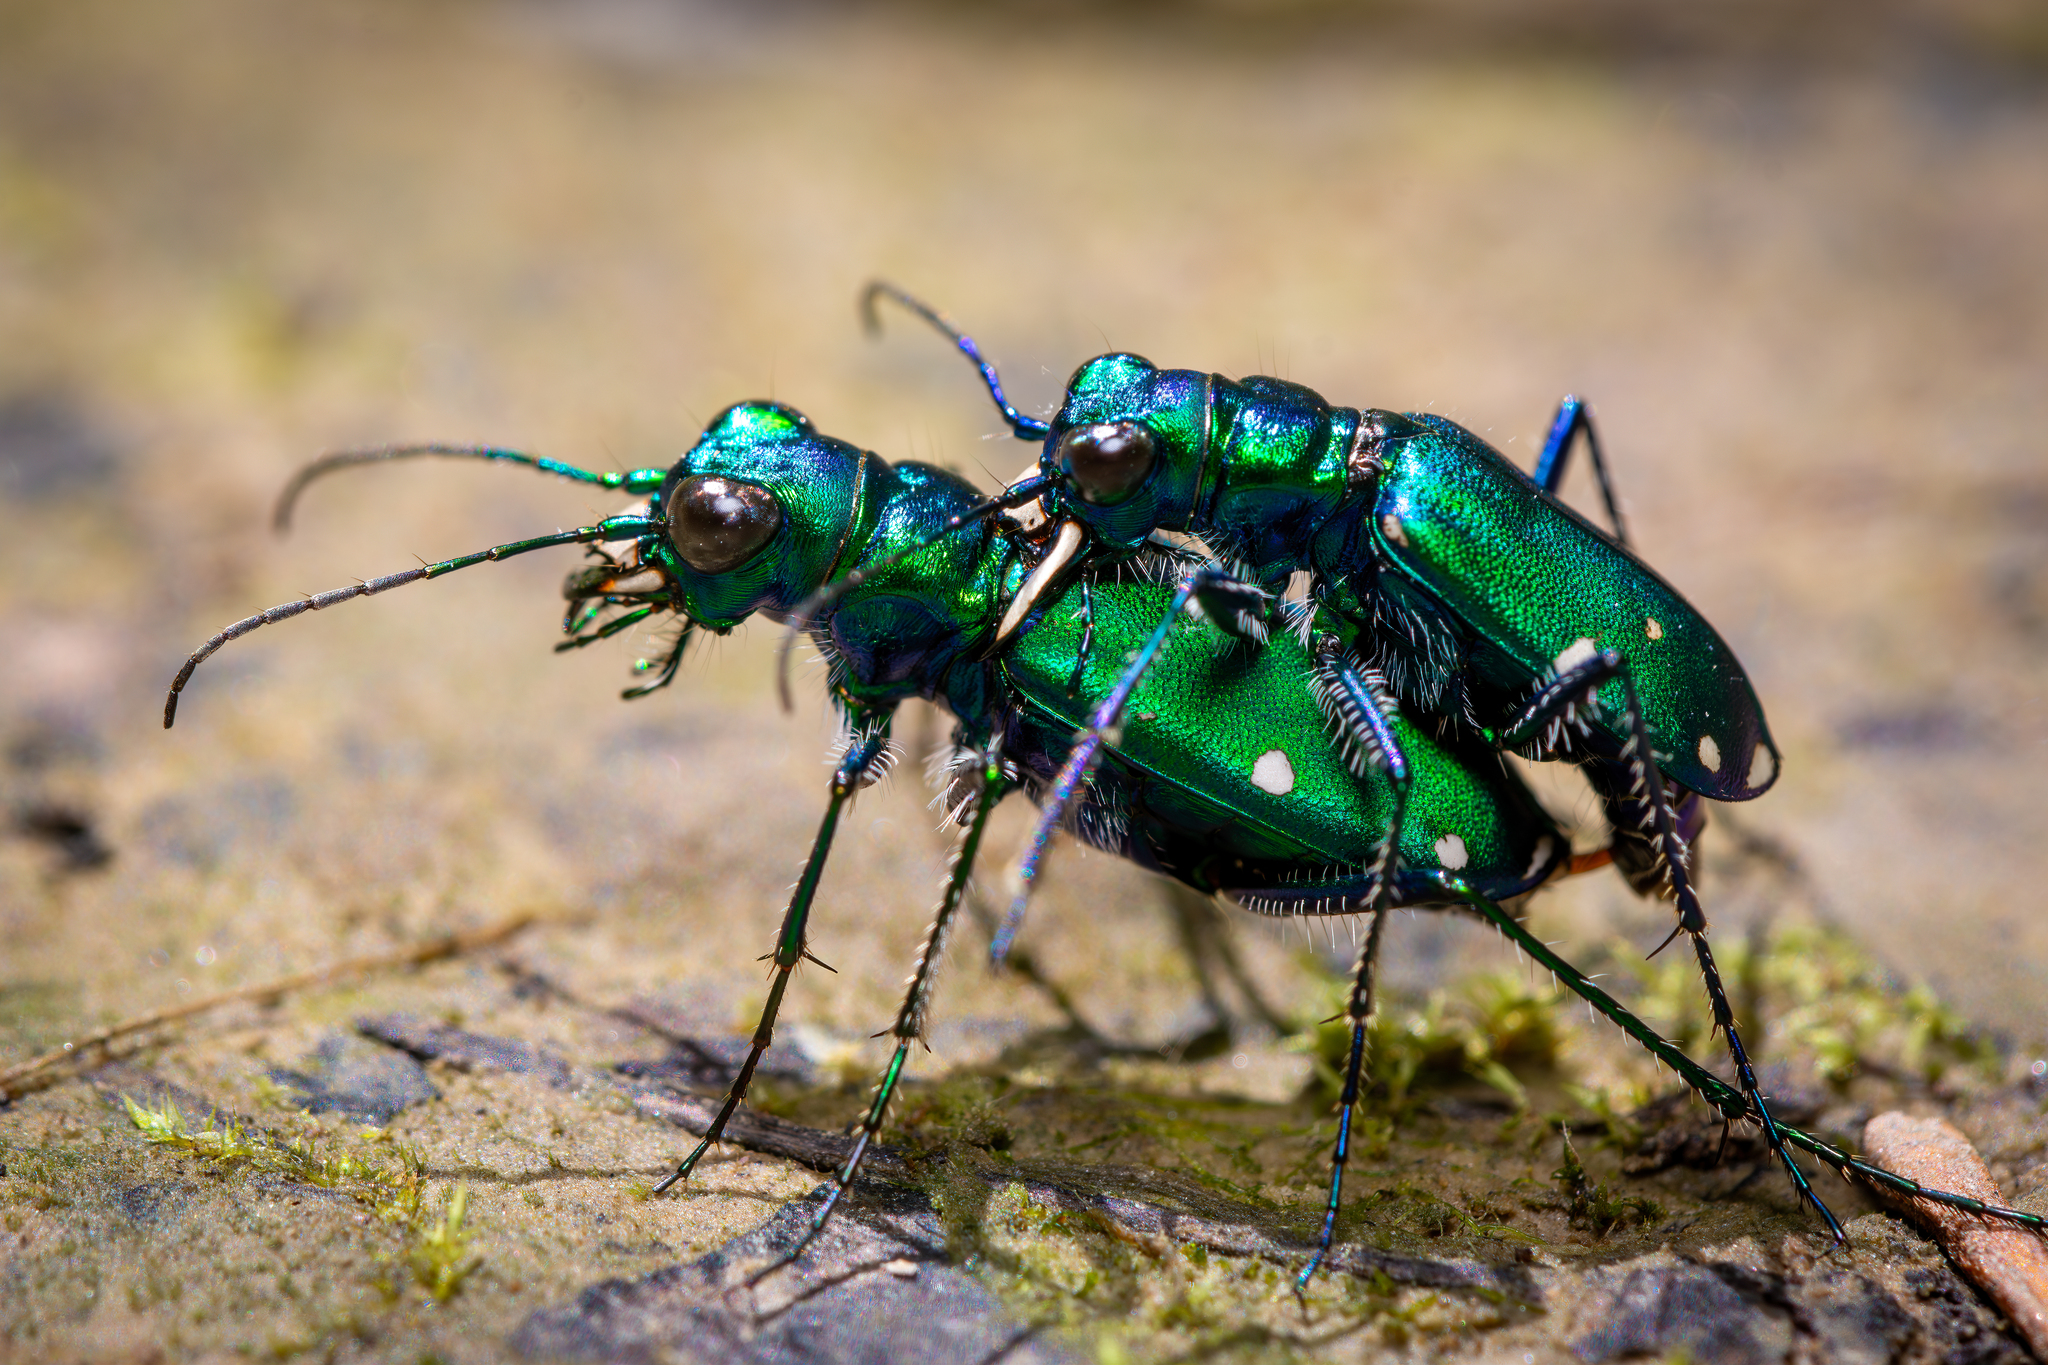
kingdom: Animalia
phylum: Arthropoda
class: Insecta
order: Coleoptera
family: Carabidae
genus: Cicindela
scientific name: Cicindela sexguttata
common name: Six-spotted tiger beetle
